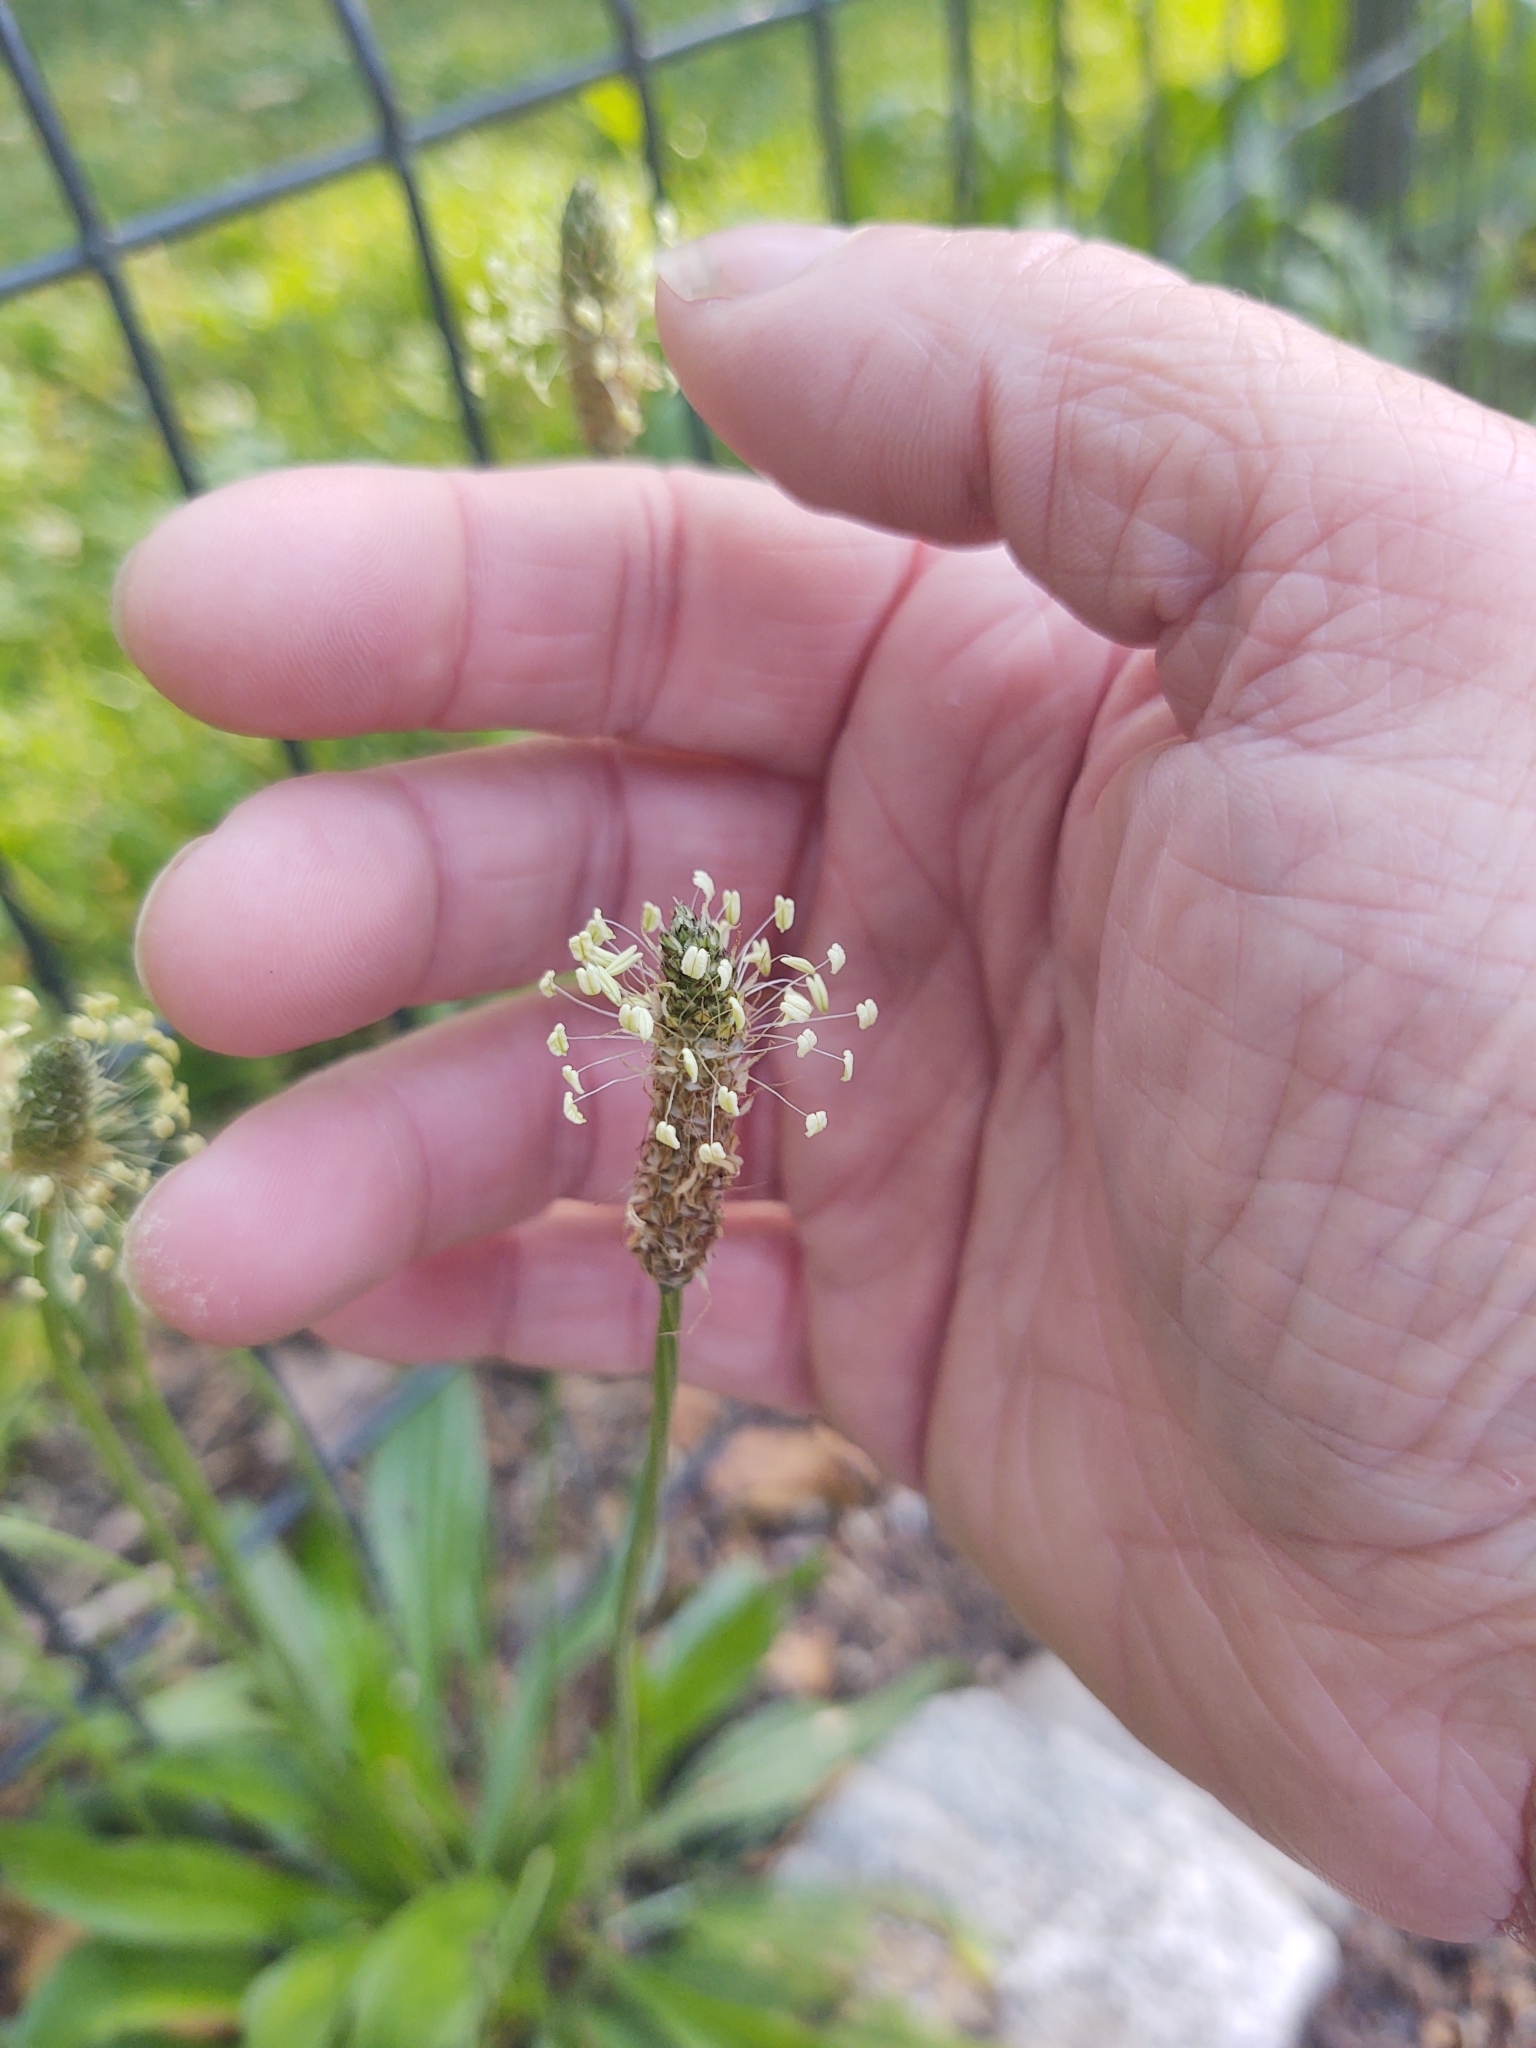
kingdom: Plantae
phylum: Tracheophyta
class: Magnoliopsida
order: Lamiales
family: Plantaginaceae
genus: Plantago
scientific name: Plantago lanceolata
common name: Ribwort plantain
